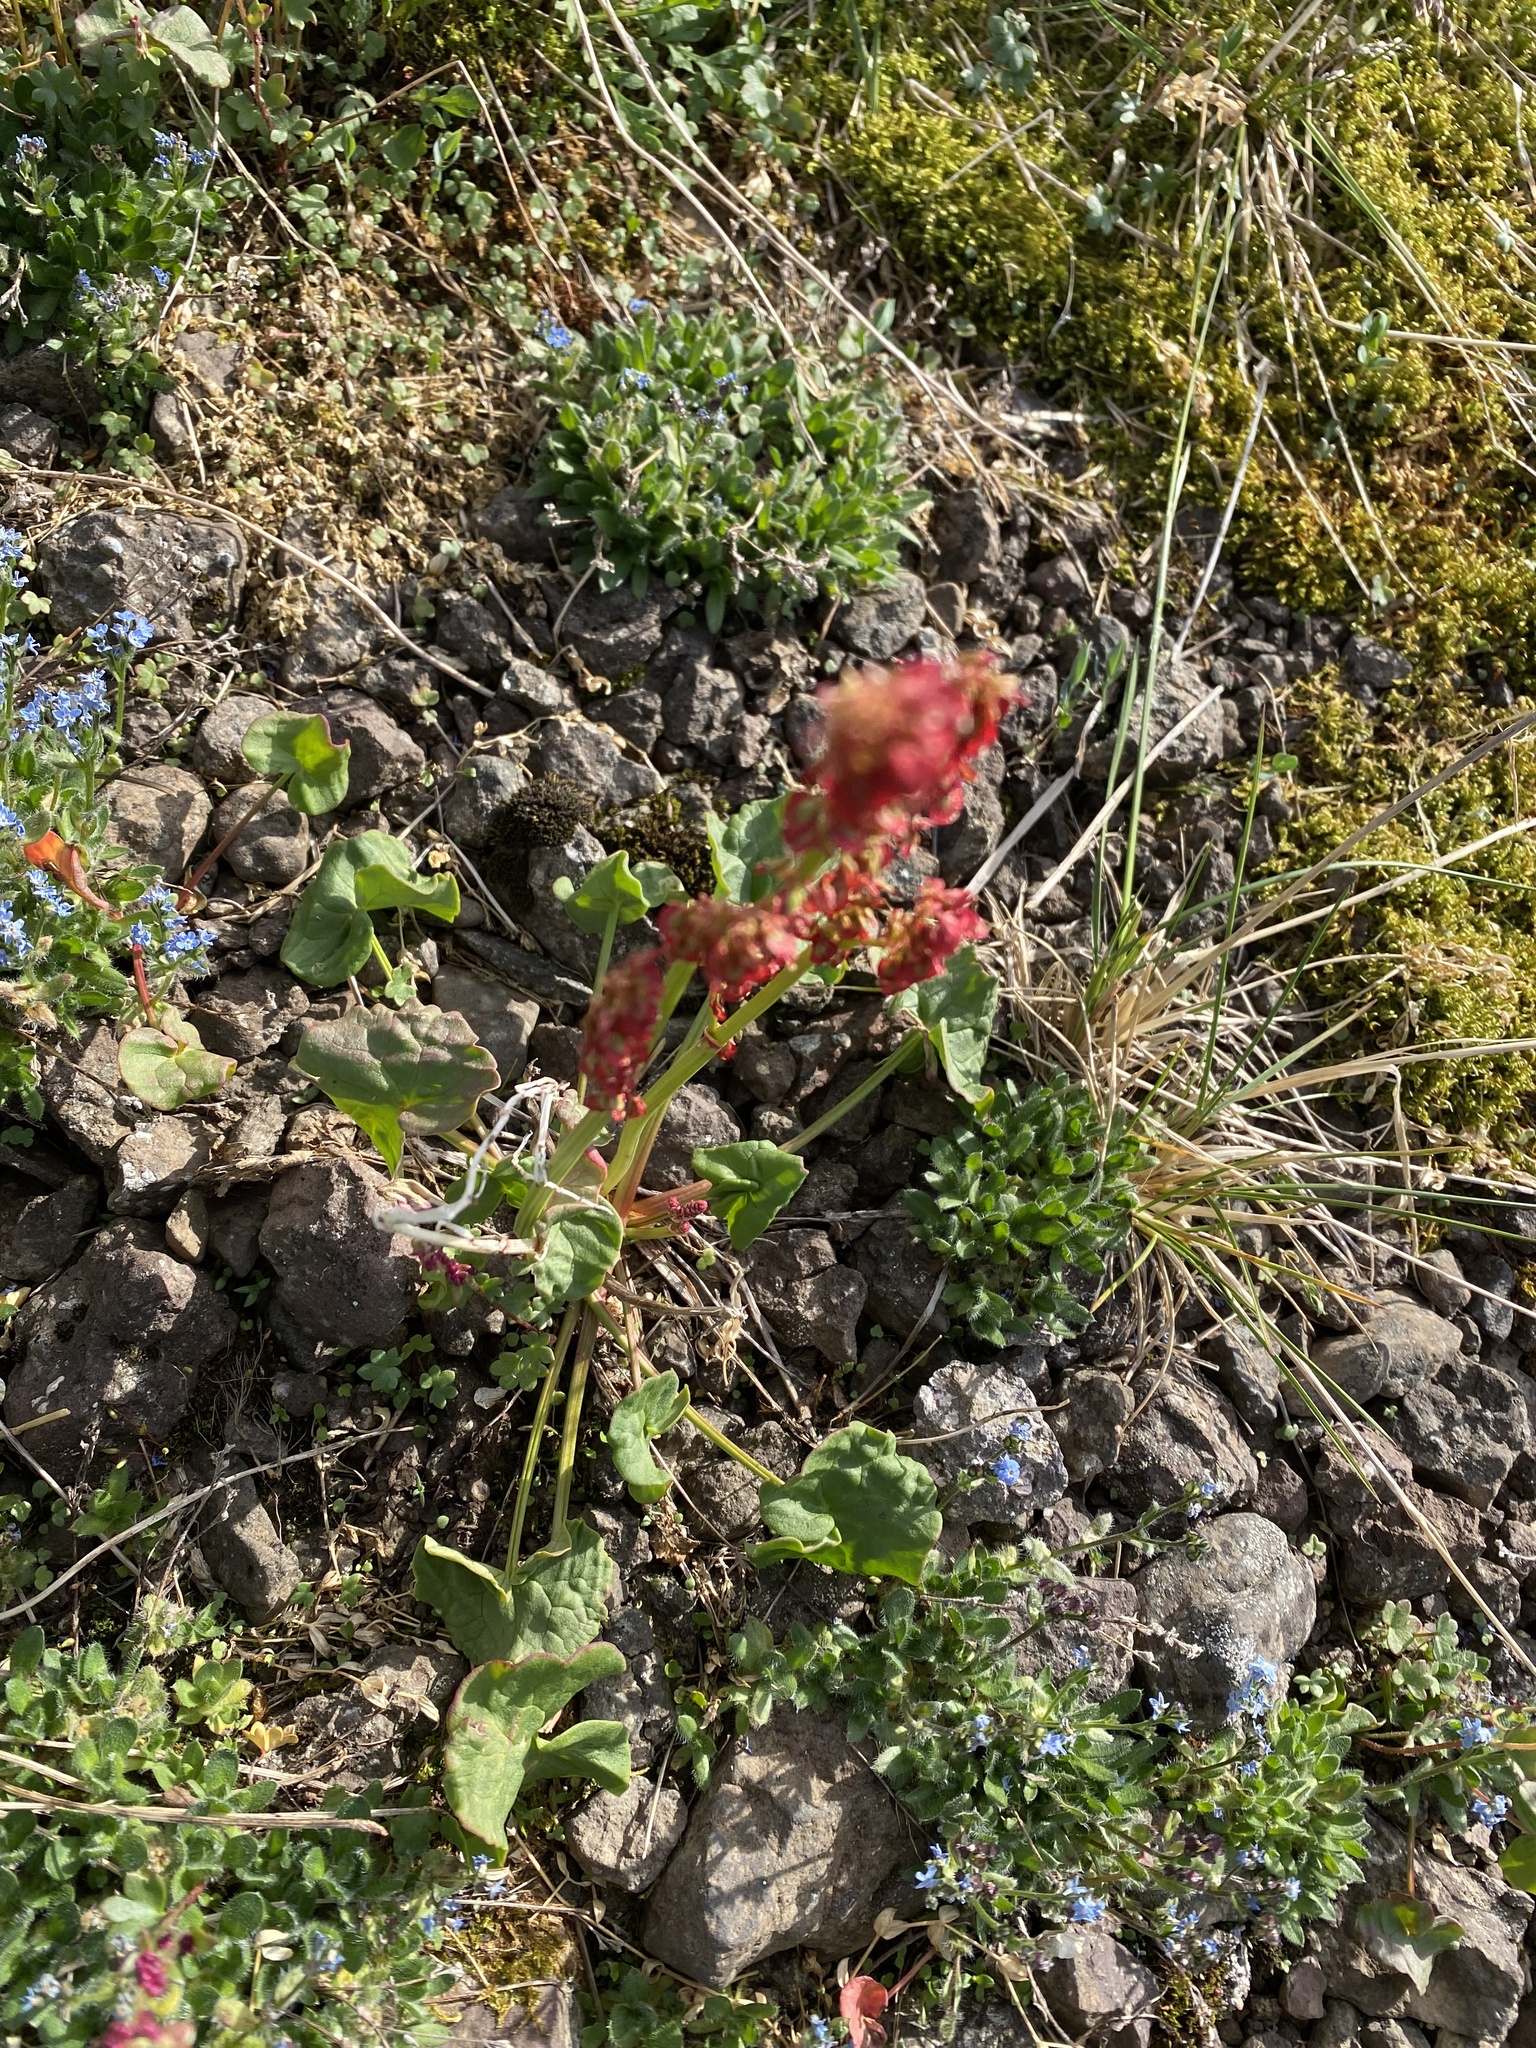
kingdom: Plantae
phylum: Tracheophyta
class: Magnoliopsida
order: Caryophyllales
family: Polygonaceae
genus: Oxyria
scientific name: Oxyria digyna
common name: Alpine mountain-sorrel
